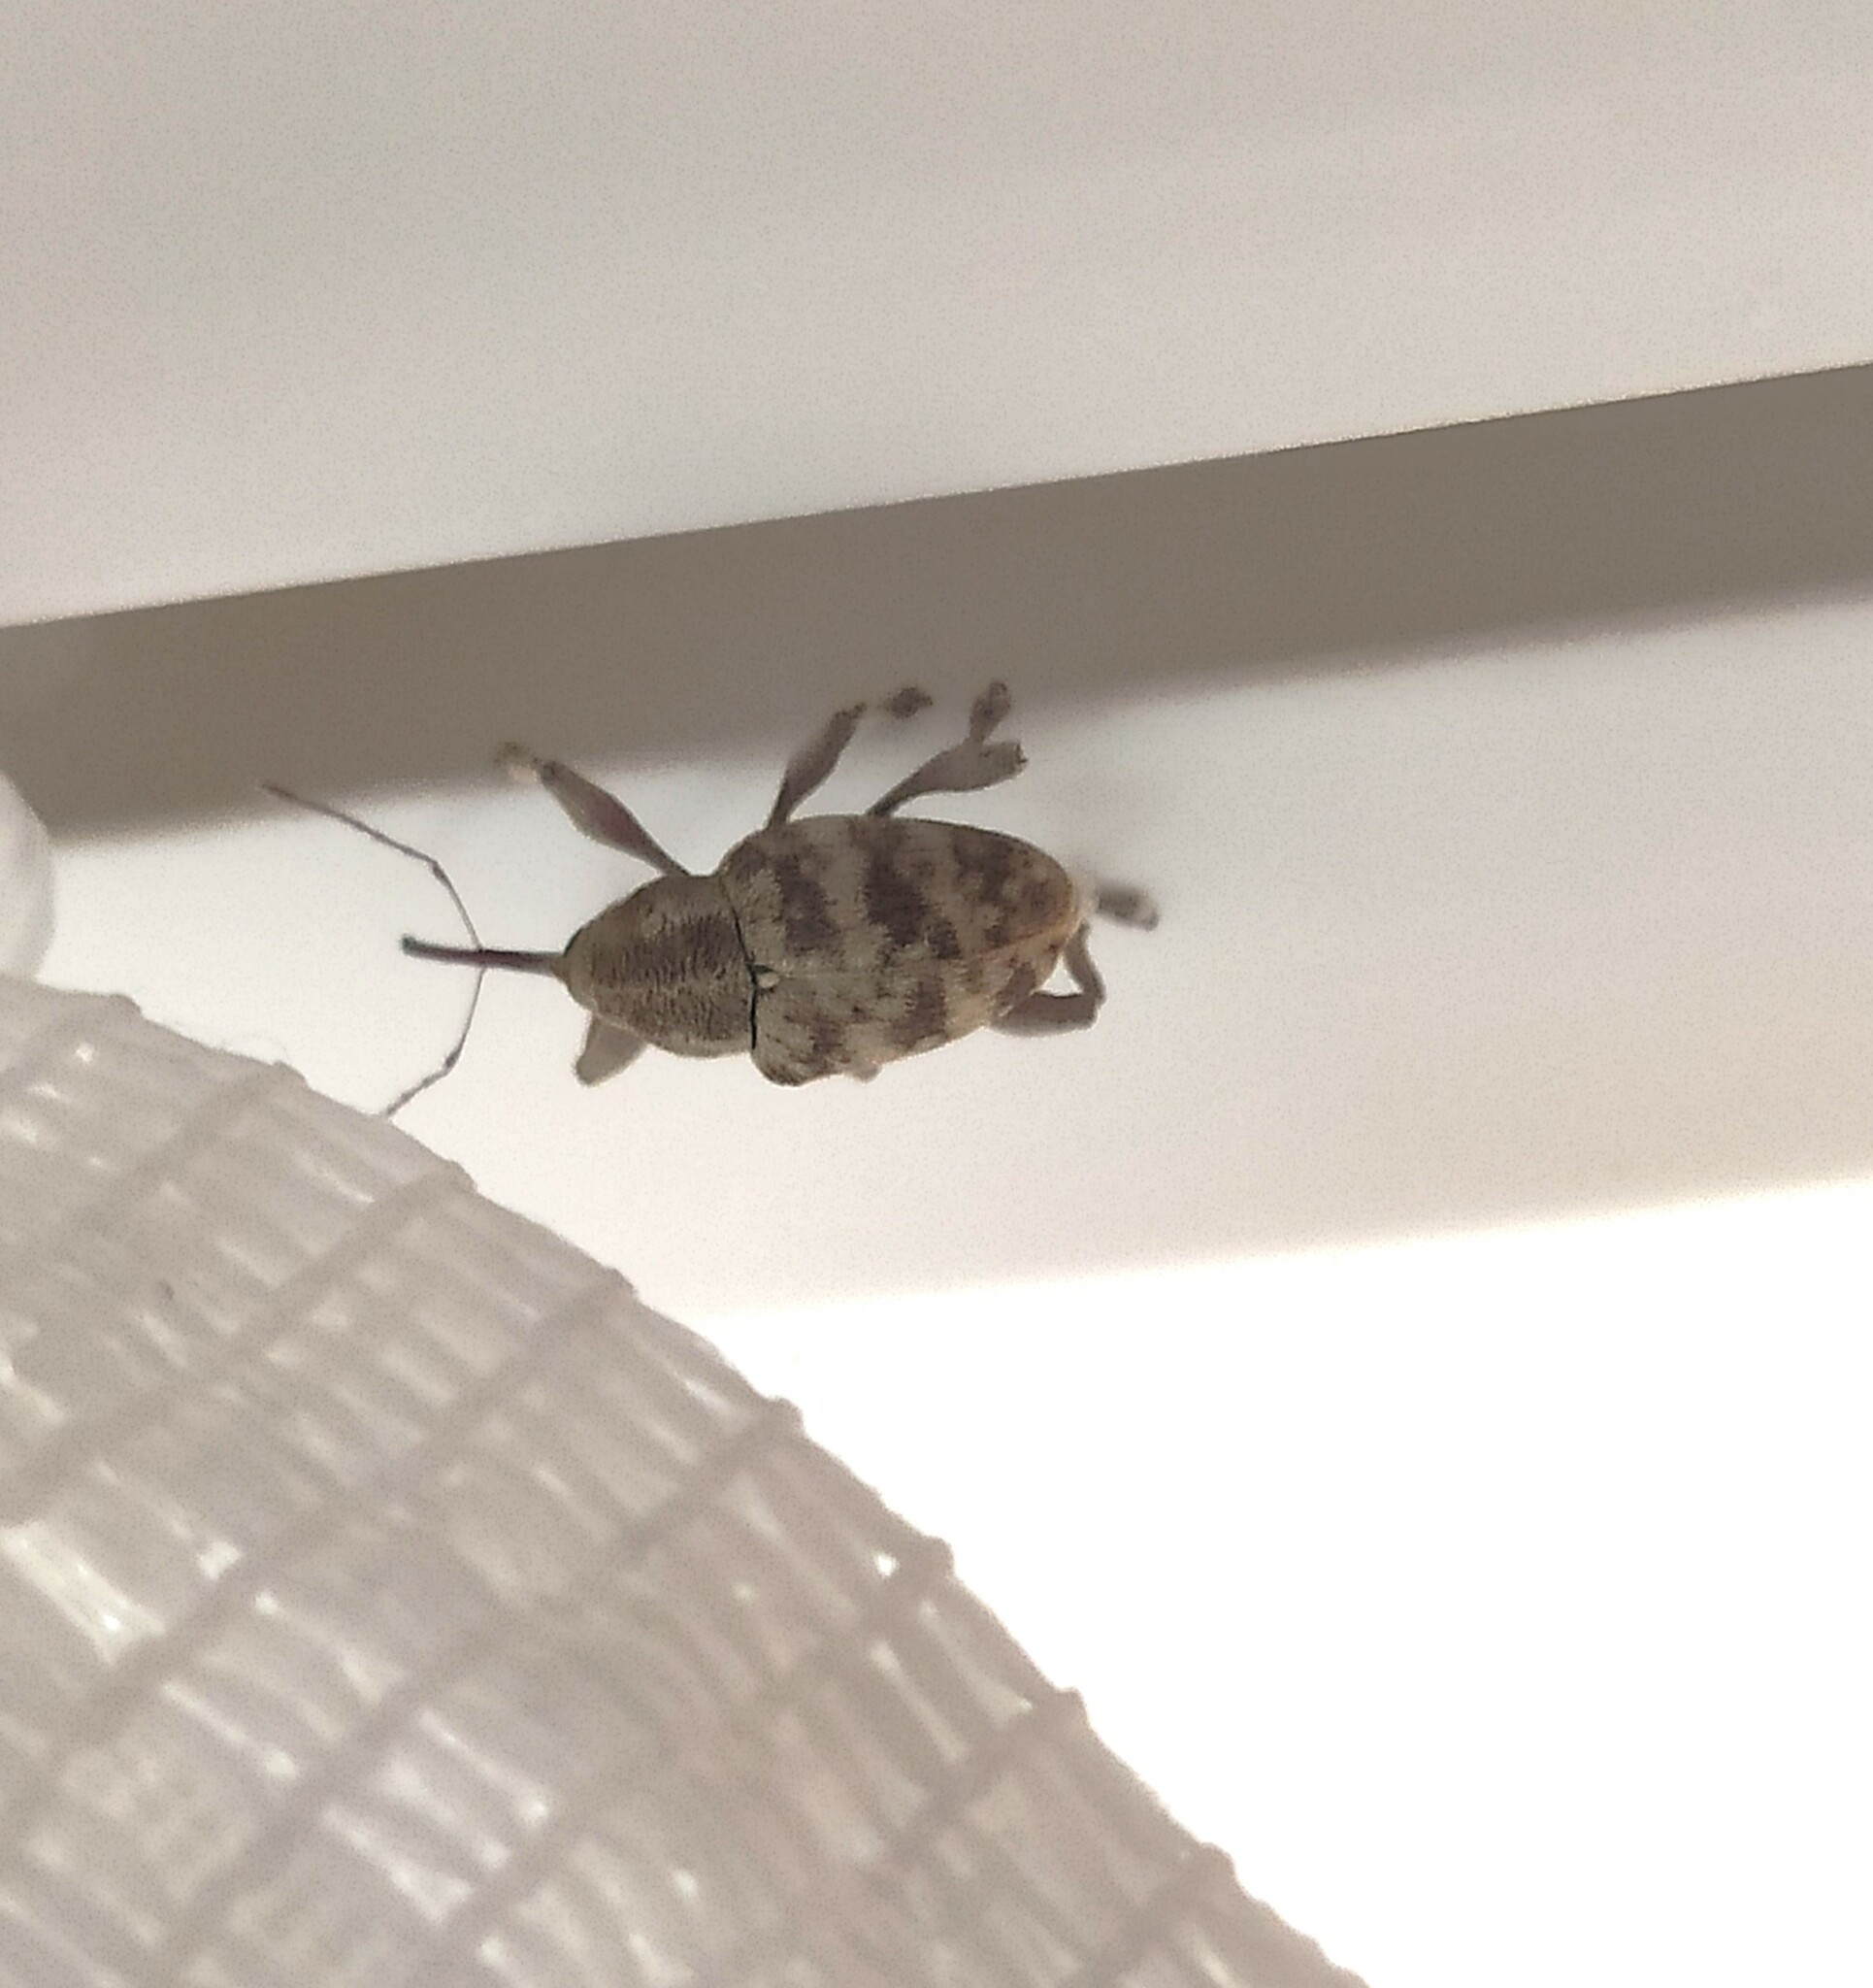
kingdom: Animalia
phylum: Arthropoda
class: Insecta
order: Coleoptera
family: Curculionidae
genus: Curculio
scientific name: Curculio venosus
